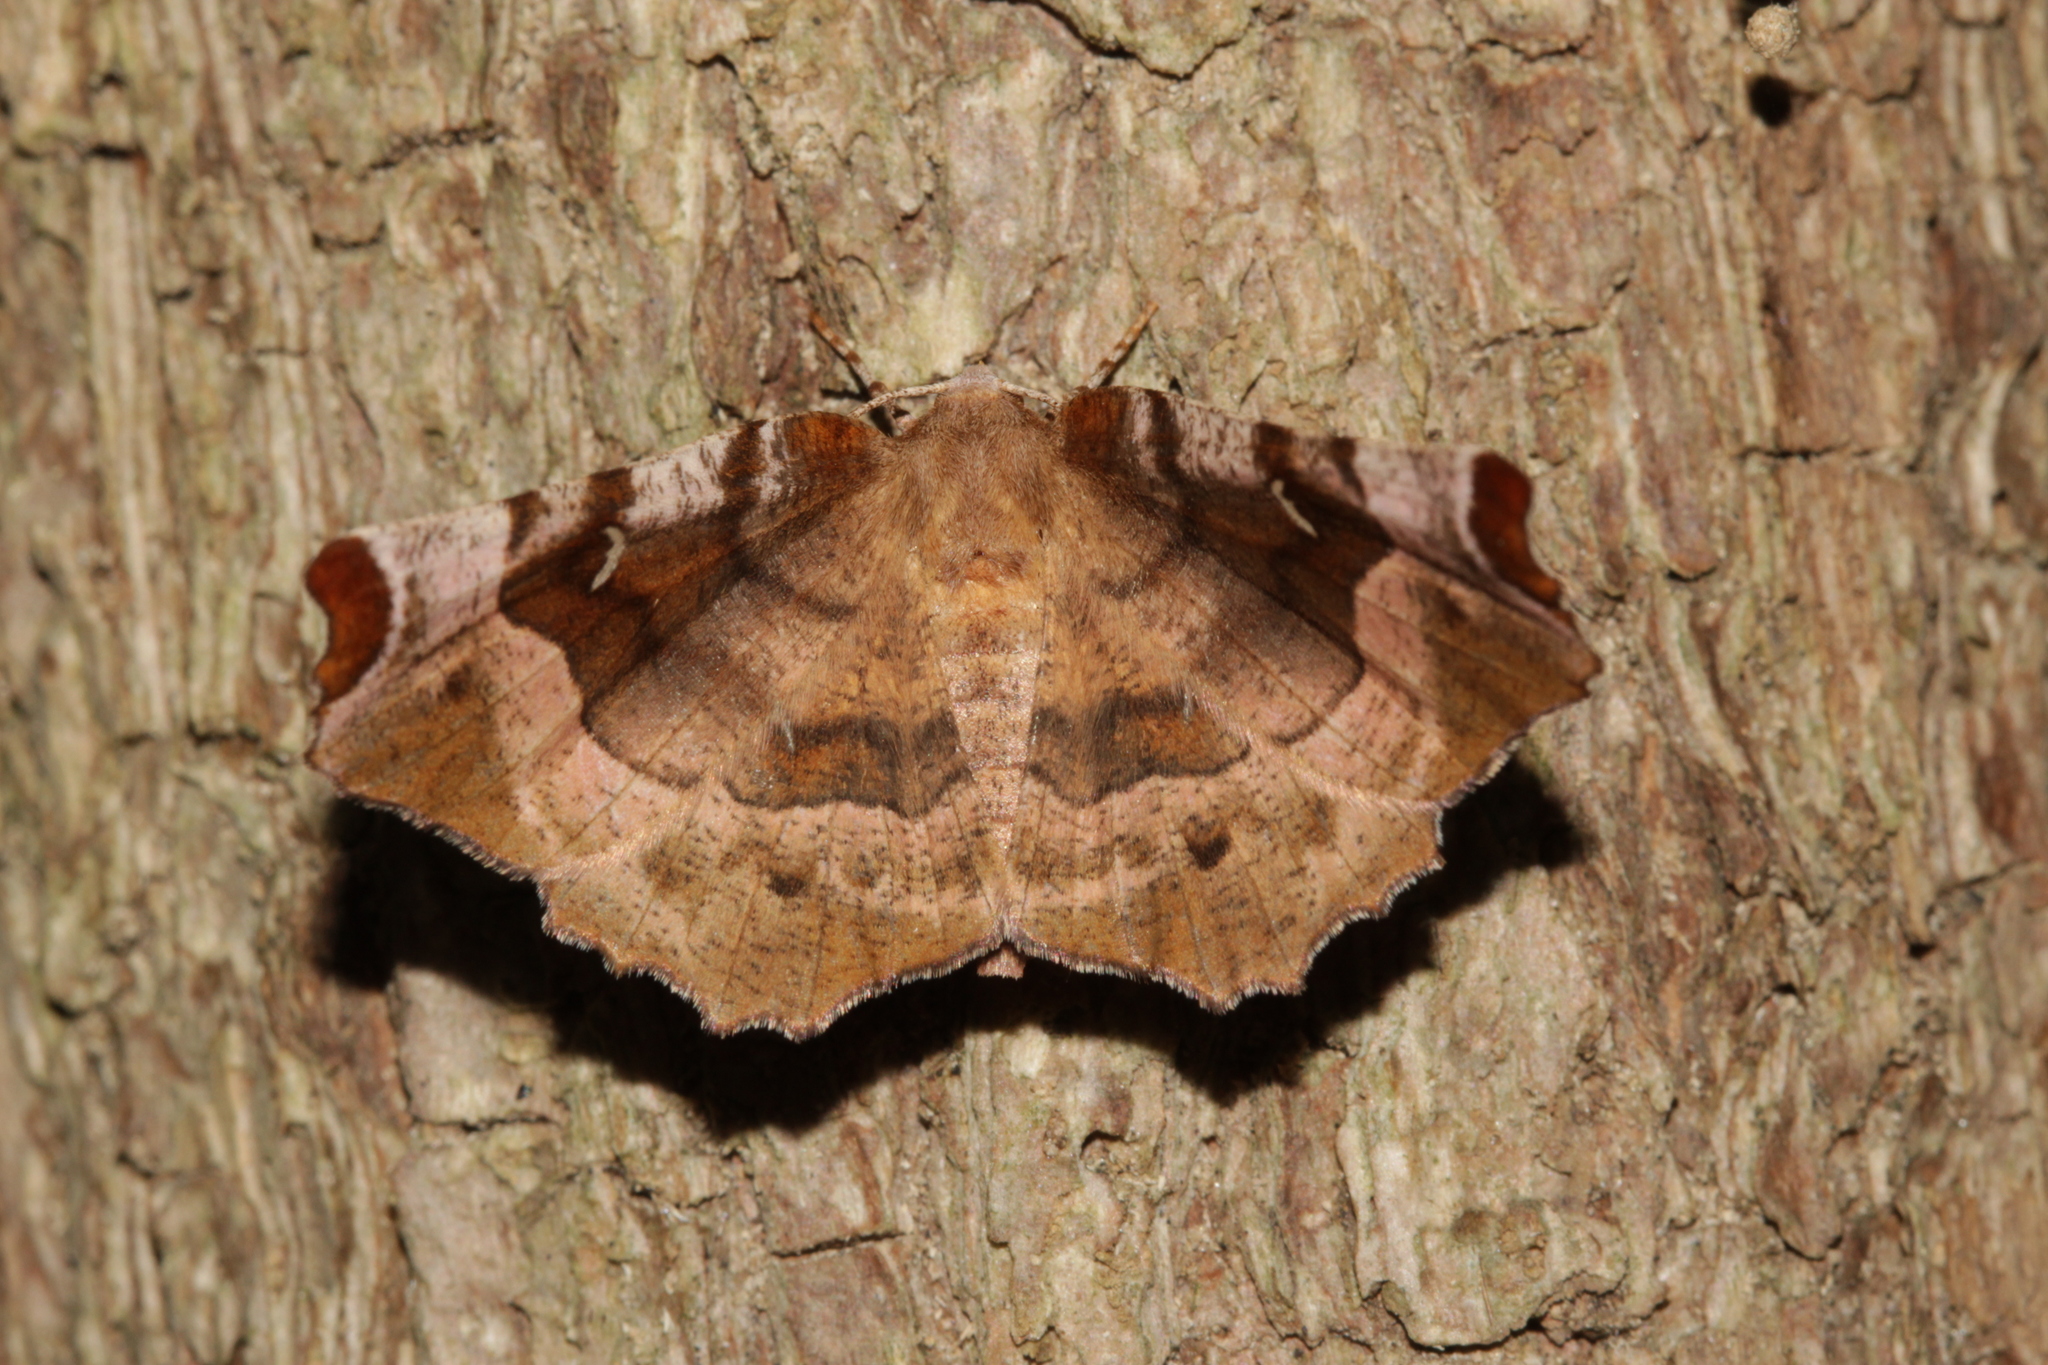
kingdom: Animalia
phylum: Arthropoda
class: Insecta
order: Lepidoptera
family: Geometridae
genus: Selenia
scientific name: Selenia tetralunaria
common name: Purple thorn
